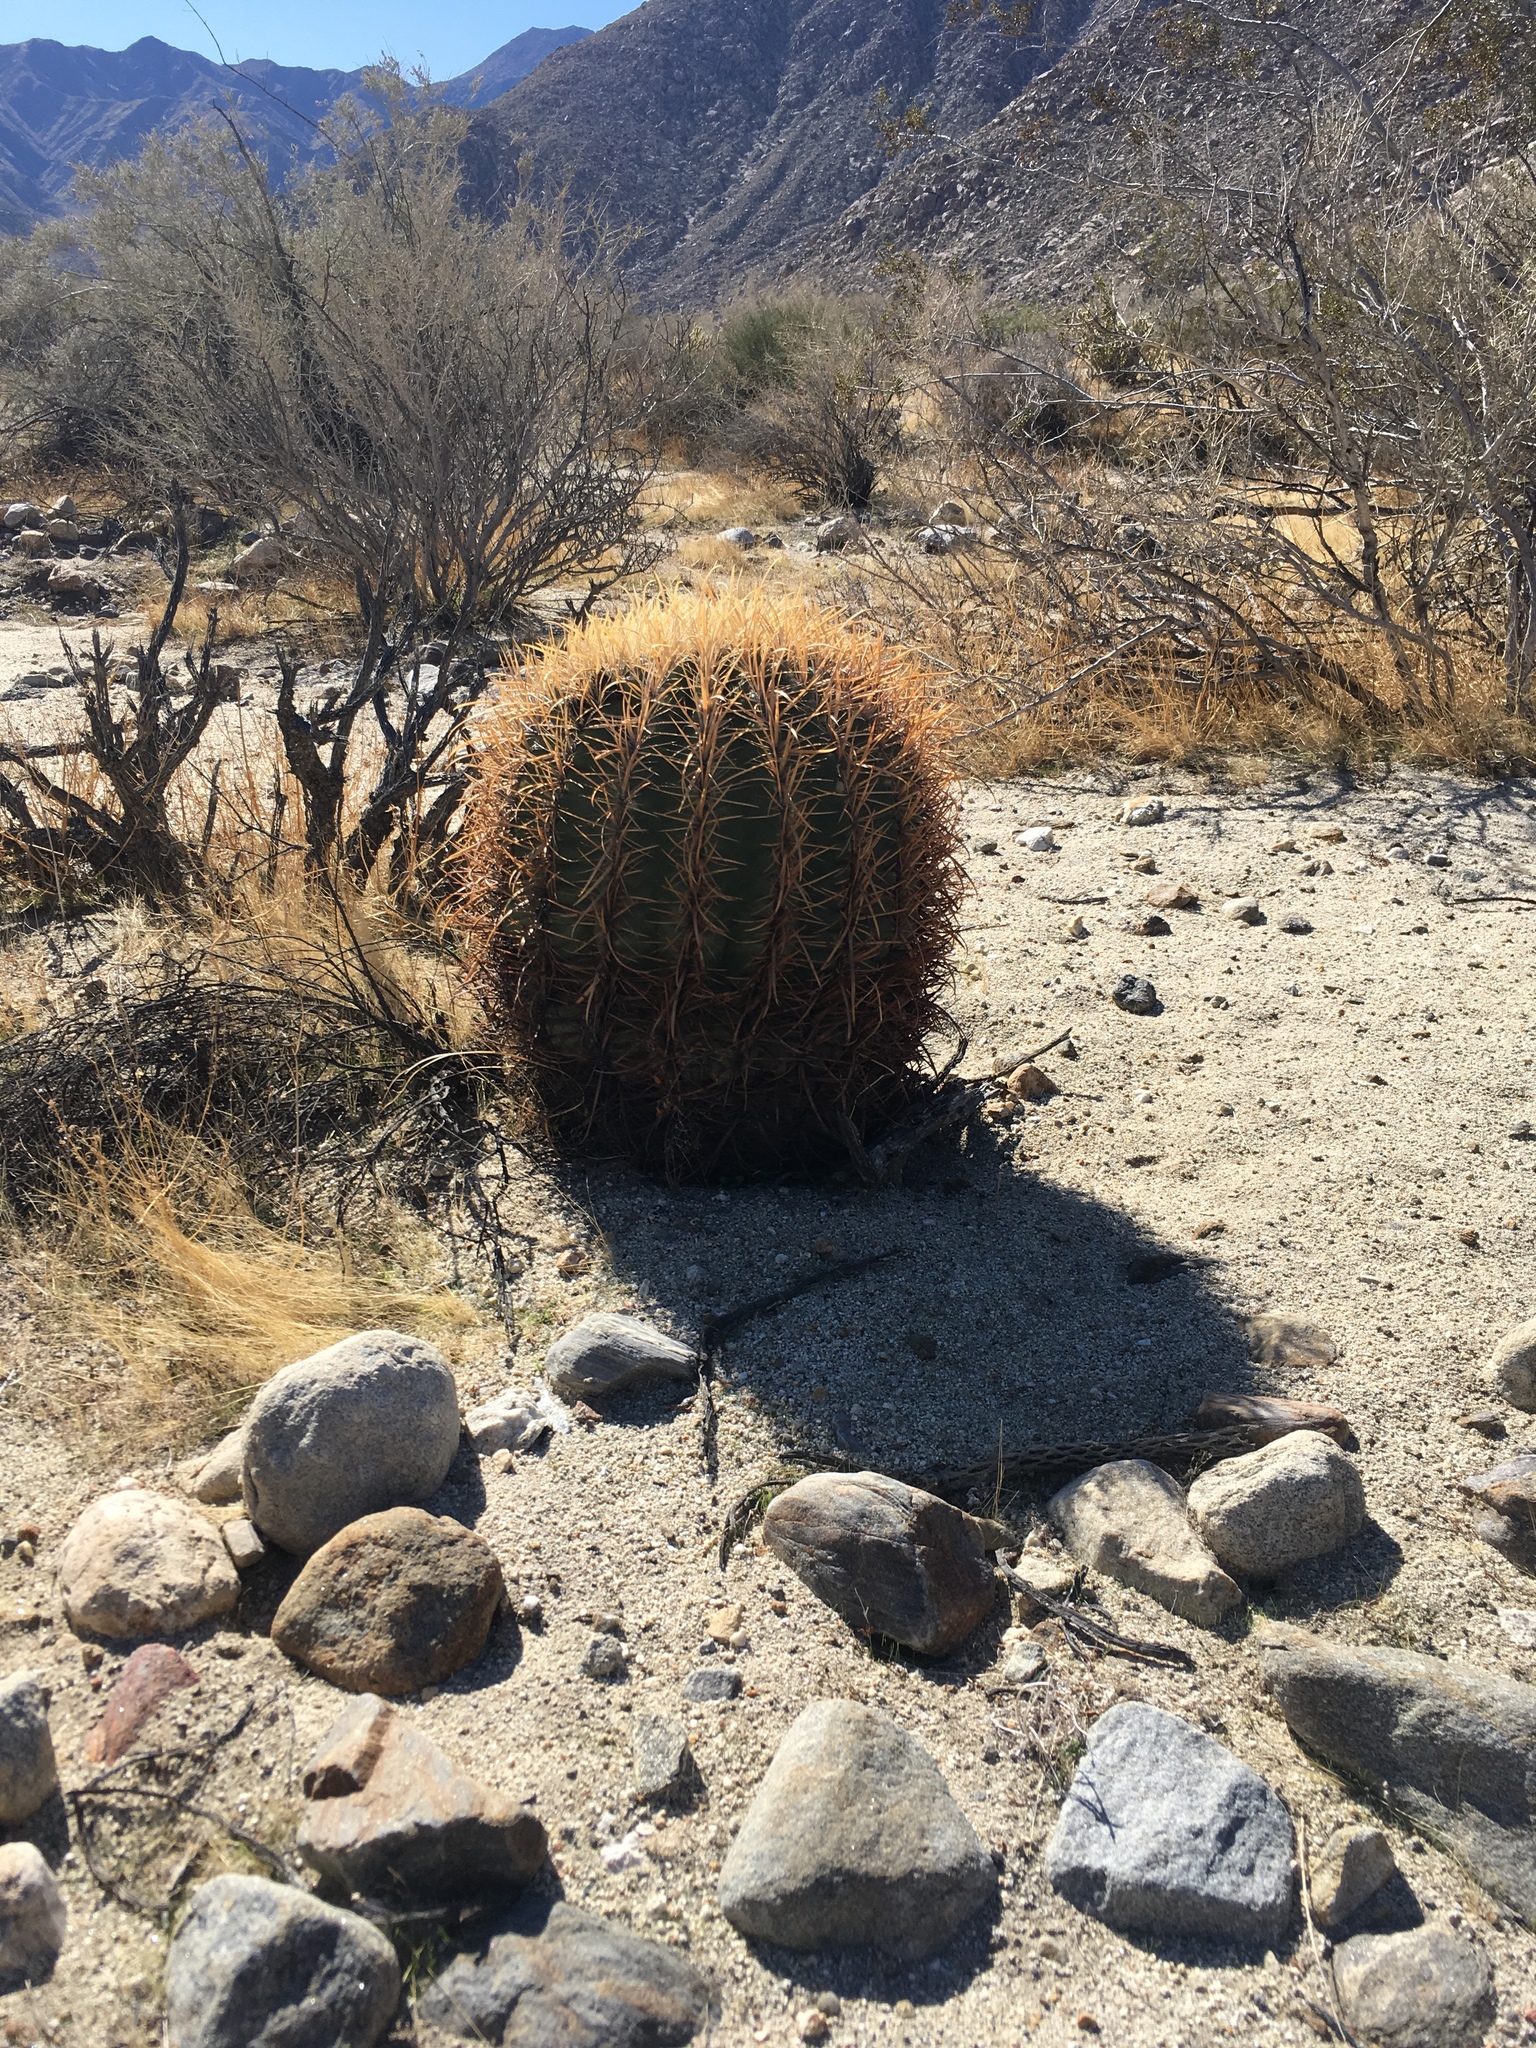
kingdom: Plantae
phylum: Tracheophyta
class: Magnoliopsida
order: Caryophyllales
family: Cactaceae
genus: Ferocactus
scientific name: Ferocactus cylindraceus
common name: California barrel cactus
